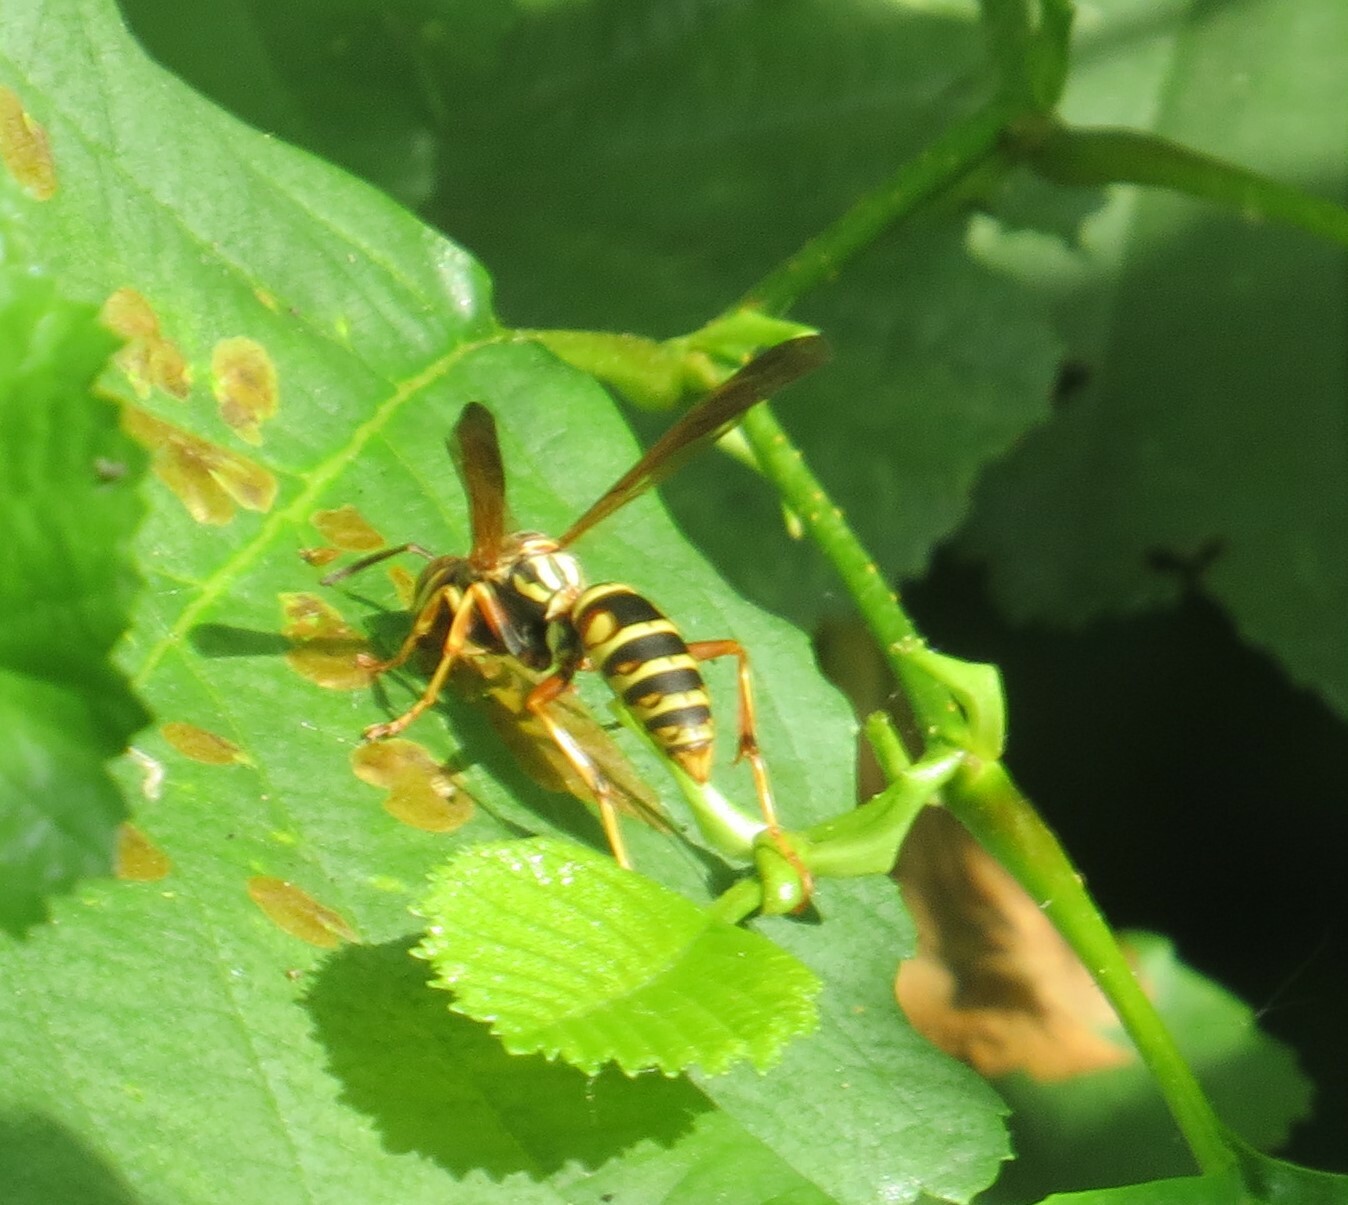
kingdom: Animalia
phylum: Arthropoda
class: Insecta
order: Hymenoptera
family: Eumenidae
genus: Polistes
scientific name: Polistes fuscatus
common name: Dark paper wasp
